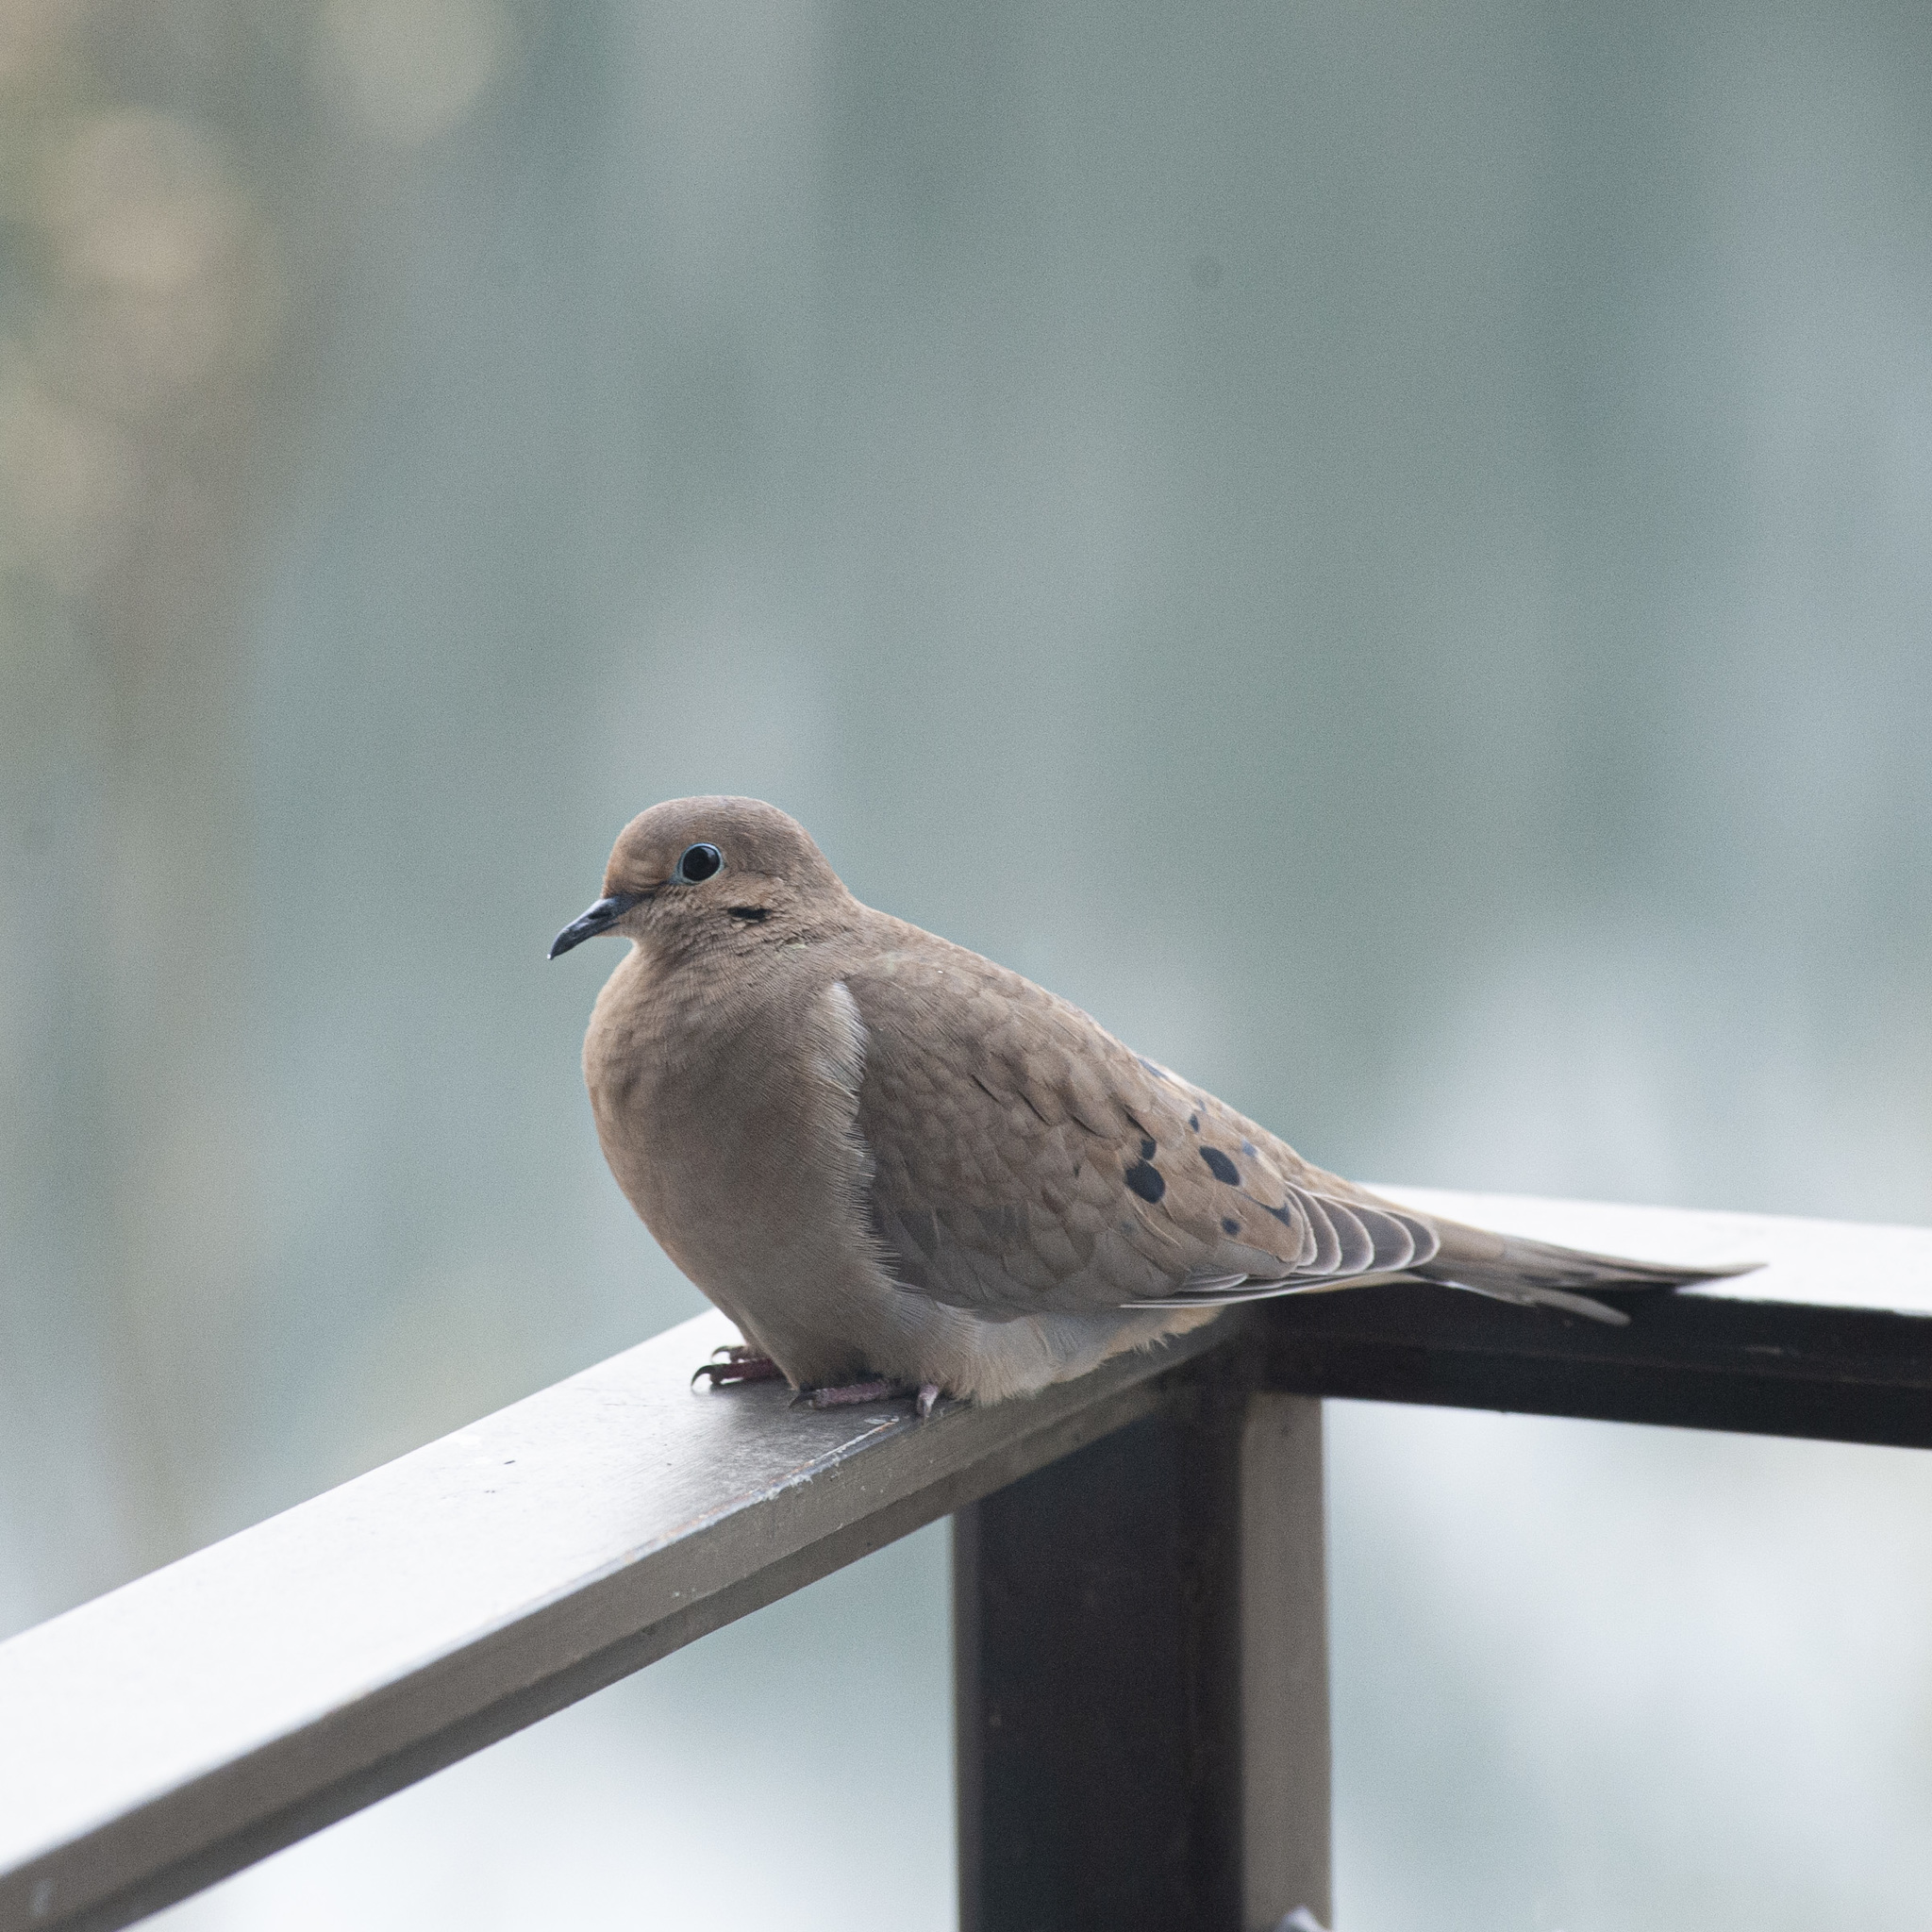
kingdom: Animalia
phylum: Chordata
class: Aves
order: Columbiformes
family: Columbidae
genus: Zenaida
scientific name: Zenaida macroura
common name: Mourning dove
